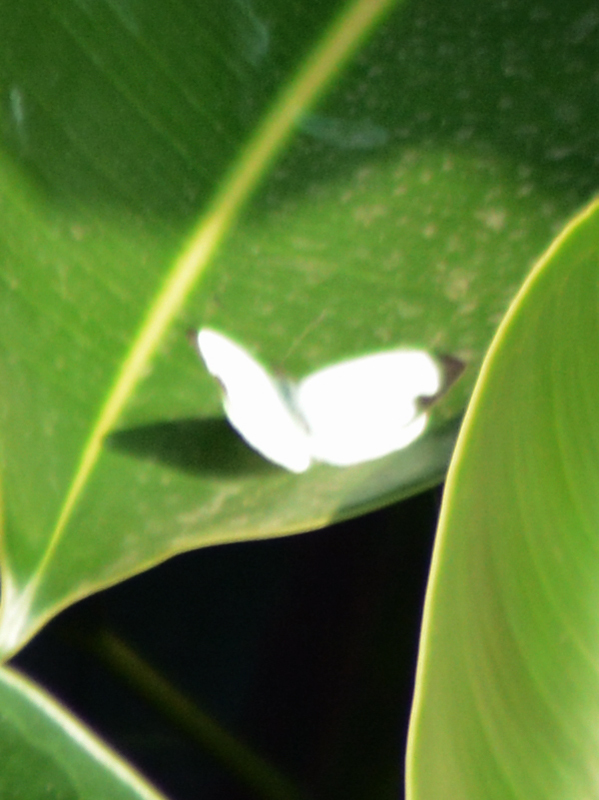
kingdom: Animalia
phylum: Arthropoda
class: Insecta
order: Lepidoptera
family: Pieridae
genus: Leptophobia
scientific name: Leptophobia aripa
